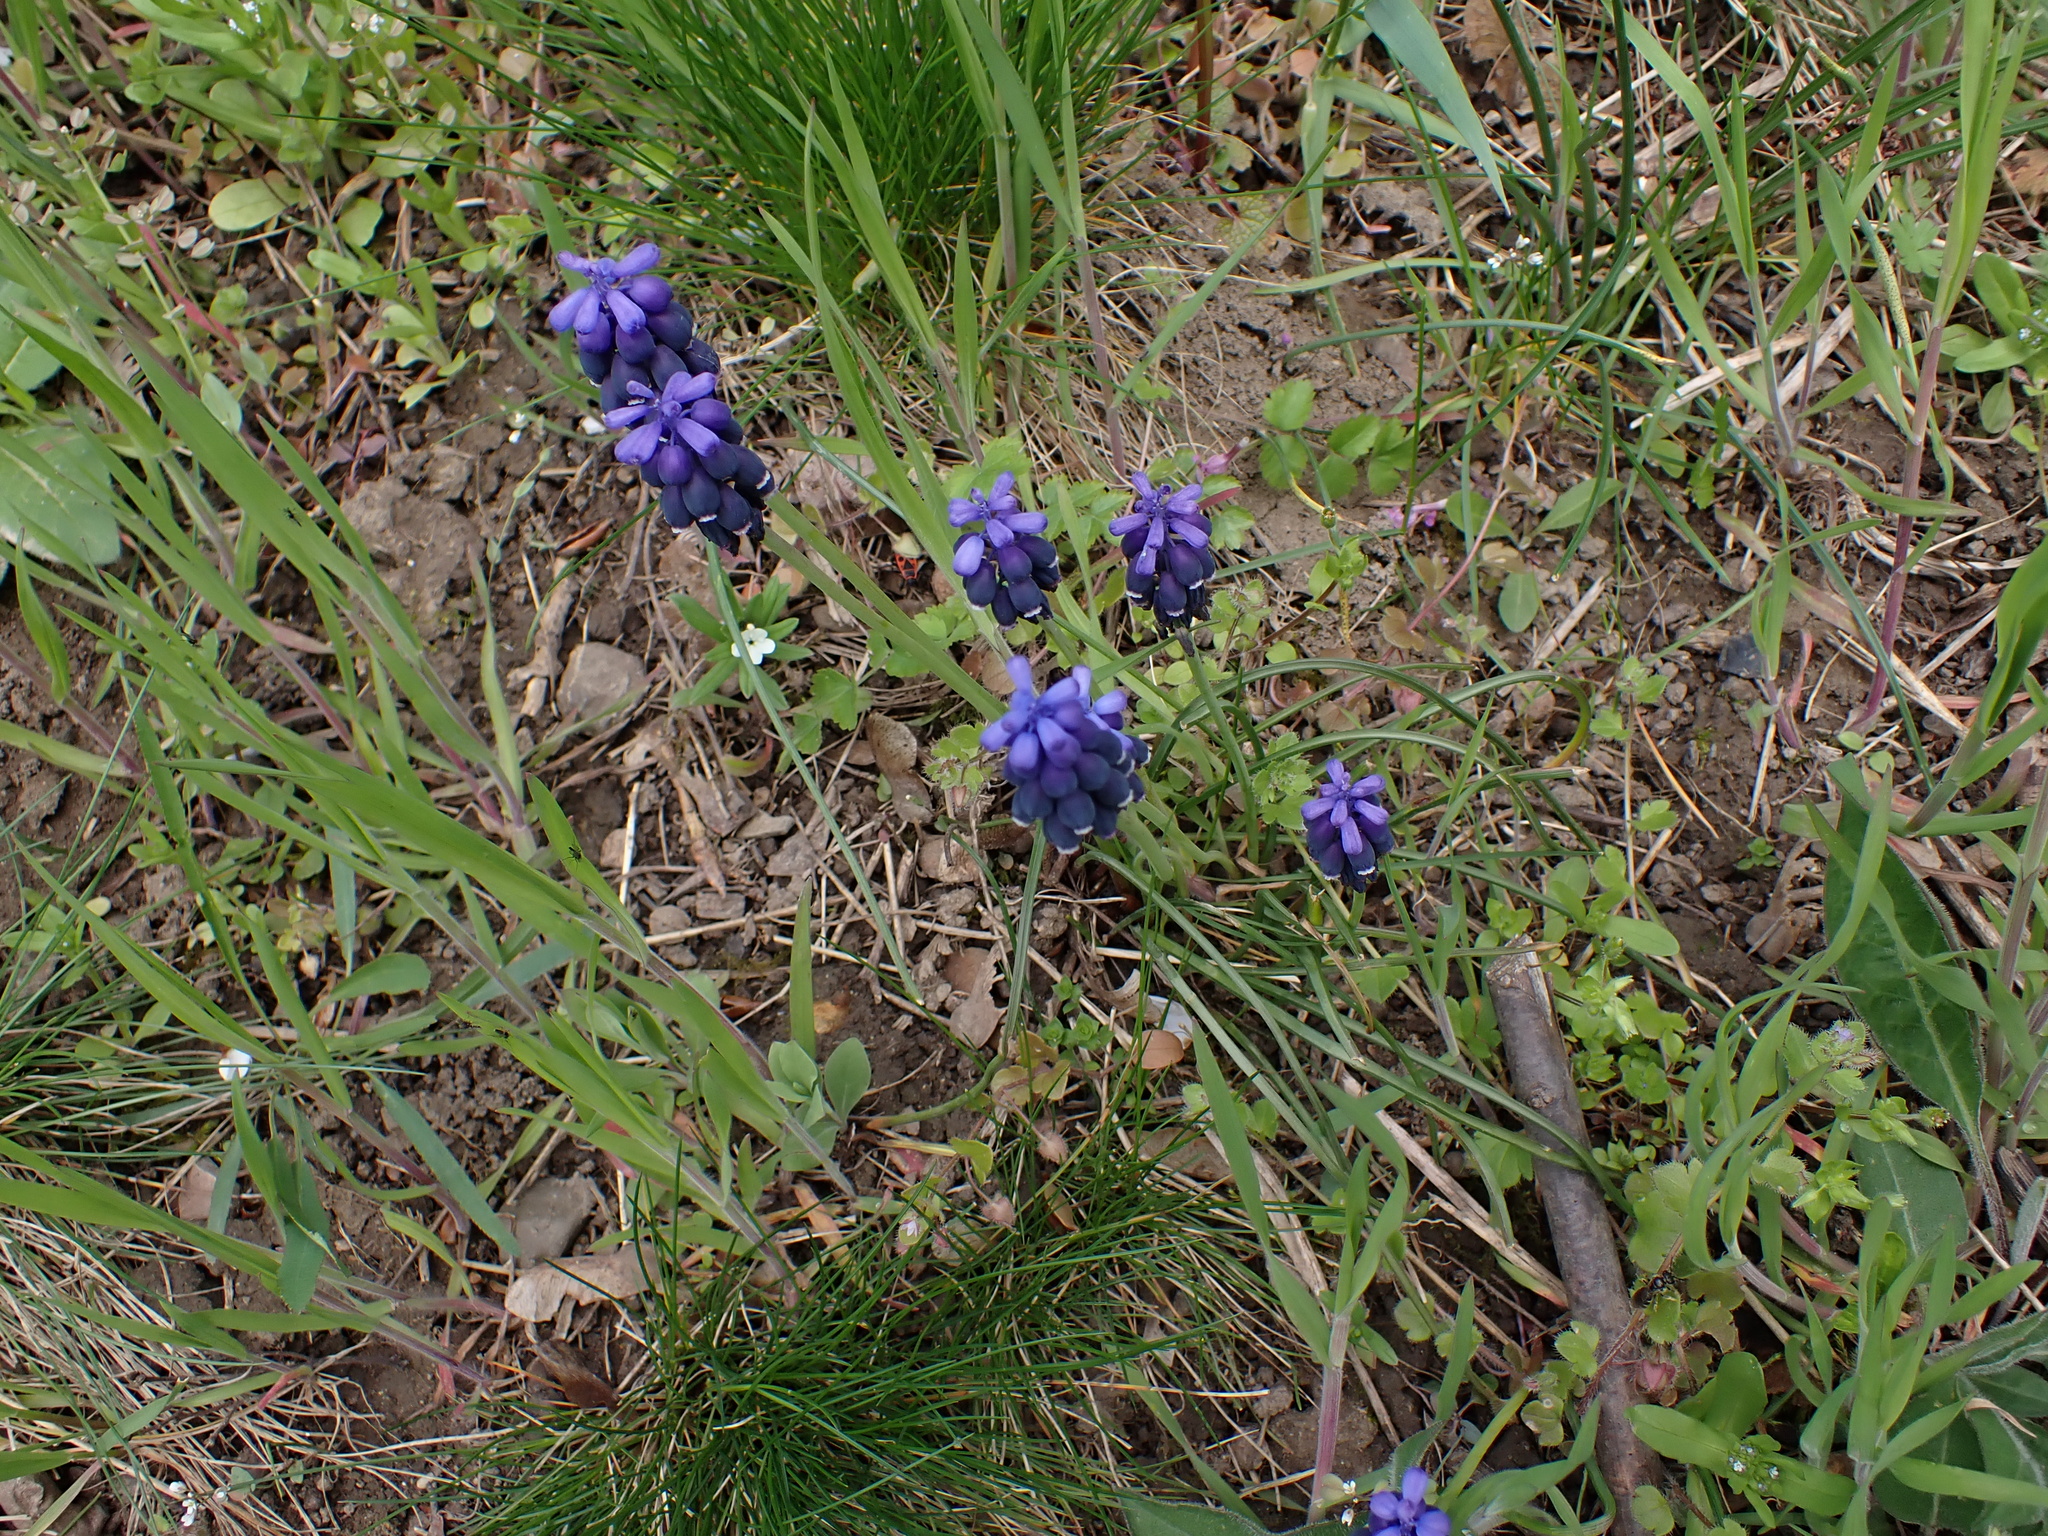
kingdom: Plantae
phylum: Tracheophyta
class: Liliopsida
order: Asparagales
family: Asparagaceae
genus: Muscari
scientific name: Muscari neglectum
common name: Grape-hyacinth
